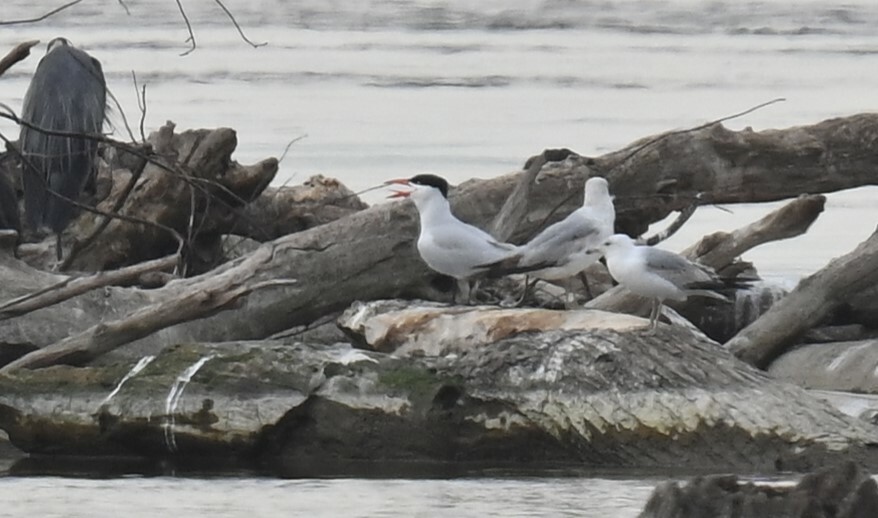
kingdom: Animalia
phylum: Chordata
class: Aves
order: Charadriiformes
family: Laridae
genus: Hydroprogne
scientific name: Hydroprogne caspia
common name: Caspian tern
